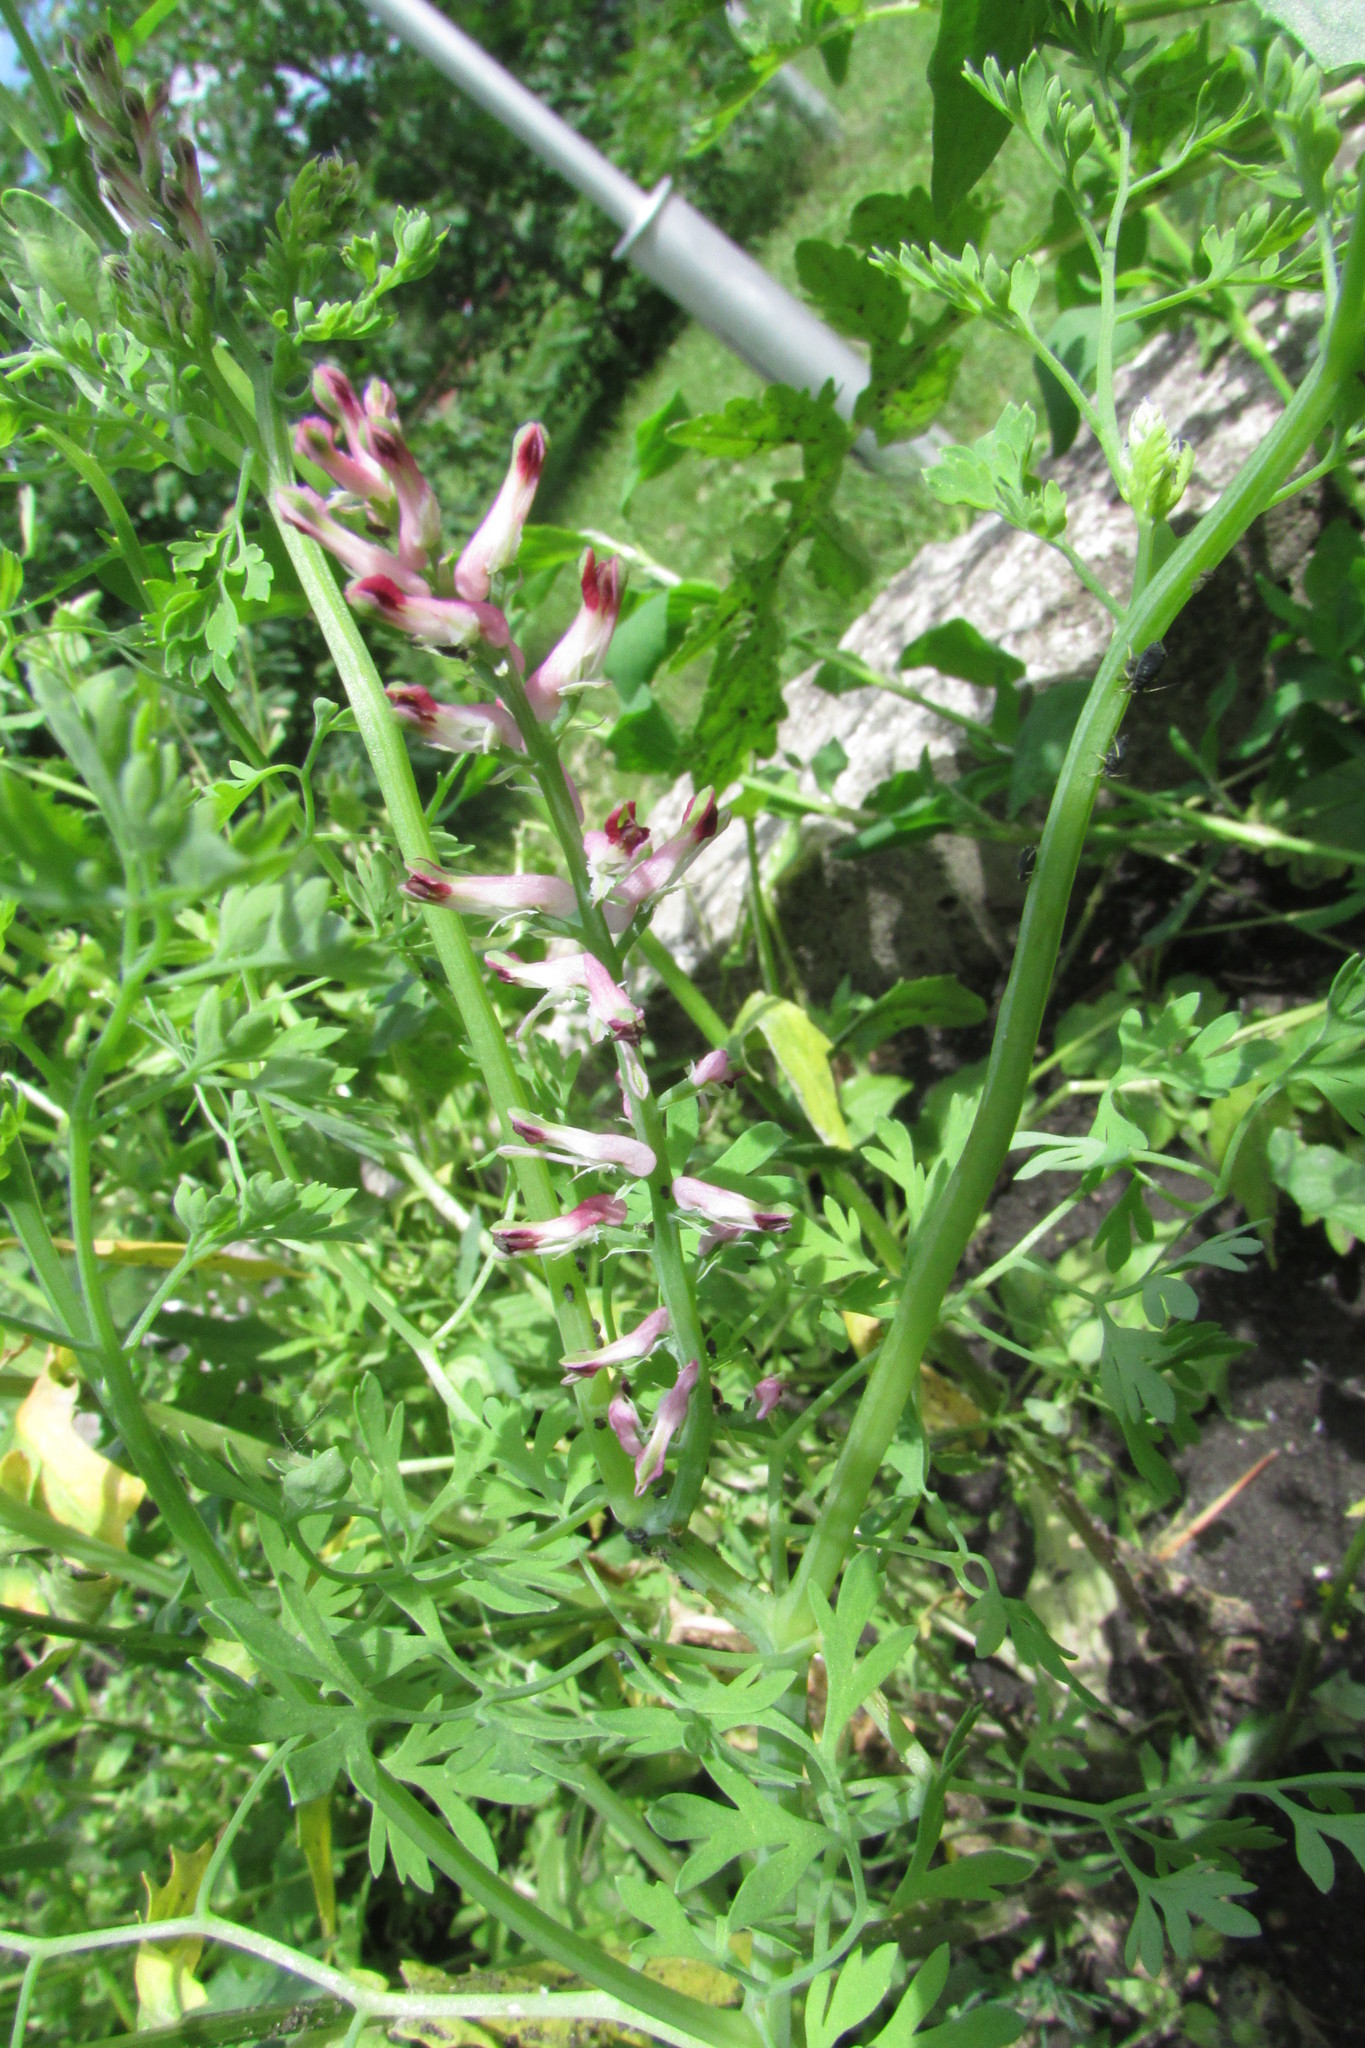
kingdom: Plantae
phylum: Tracheophyta
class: Magnoliopsida
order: Ranunculales
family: Papaveraceae
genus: Fumaria
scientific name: Fumaria officinalis
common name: Common fumitory
